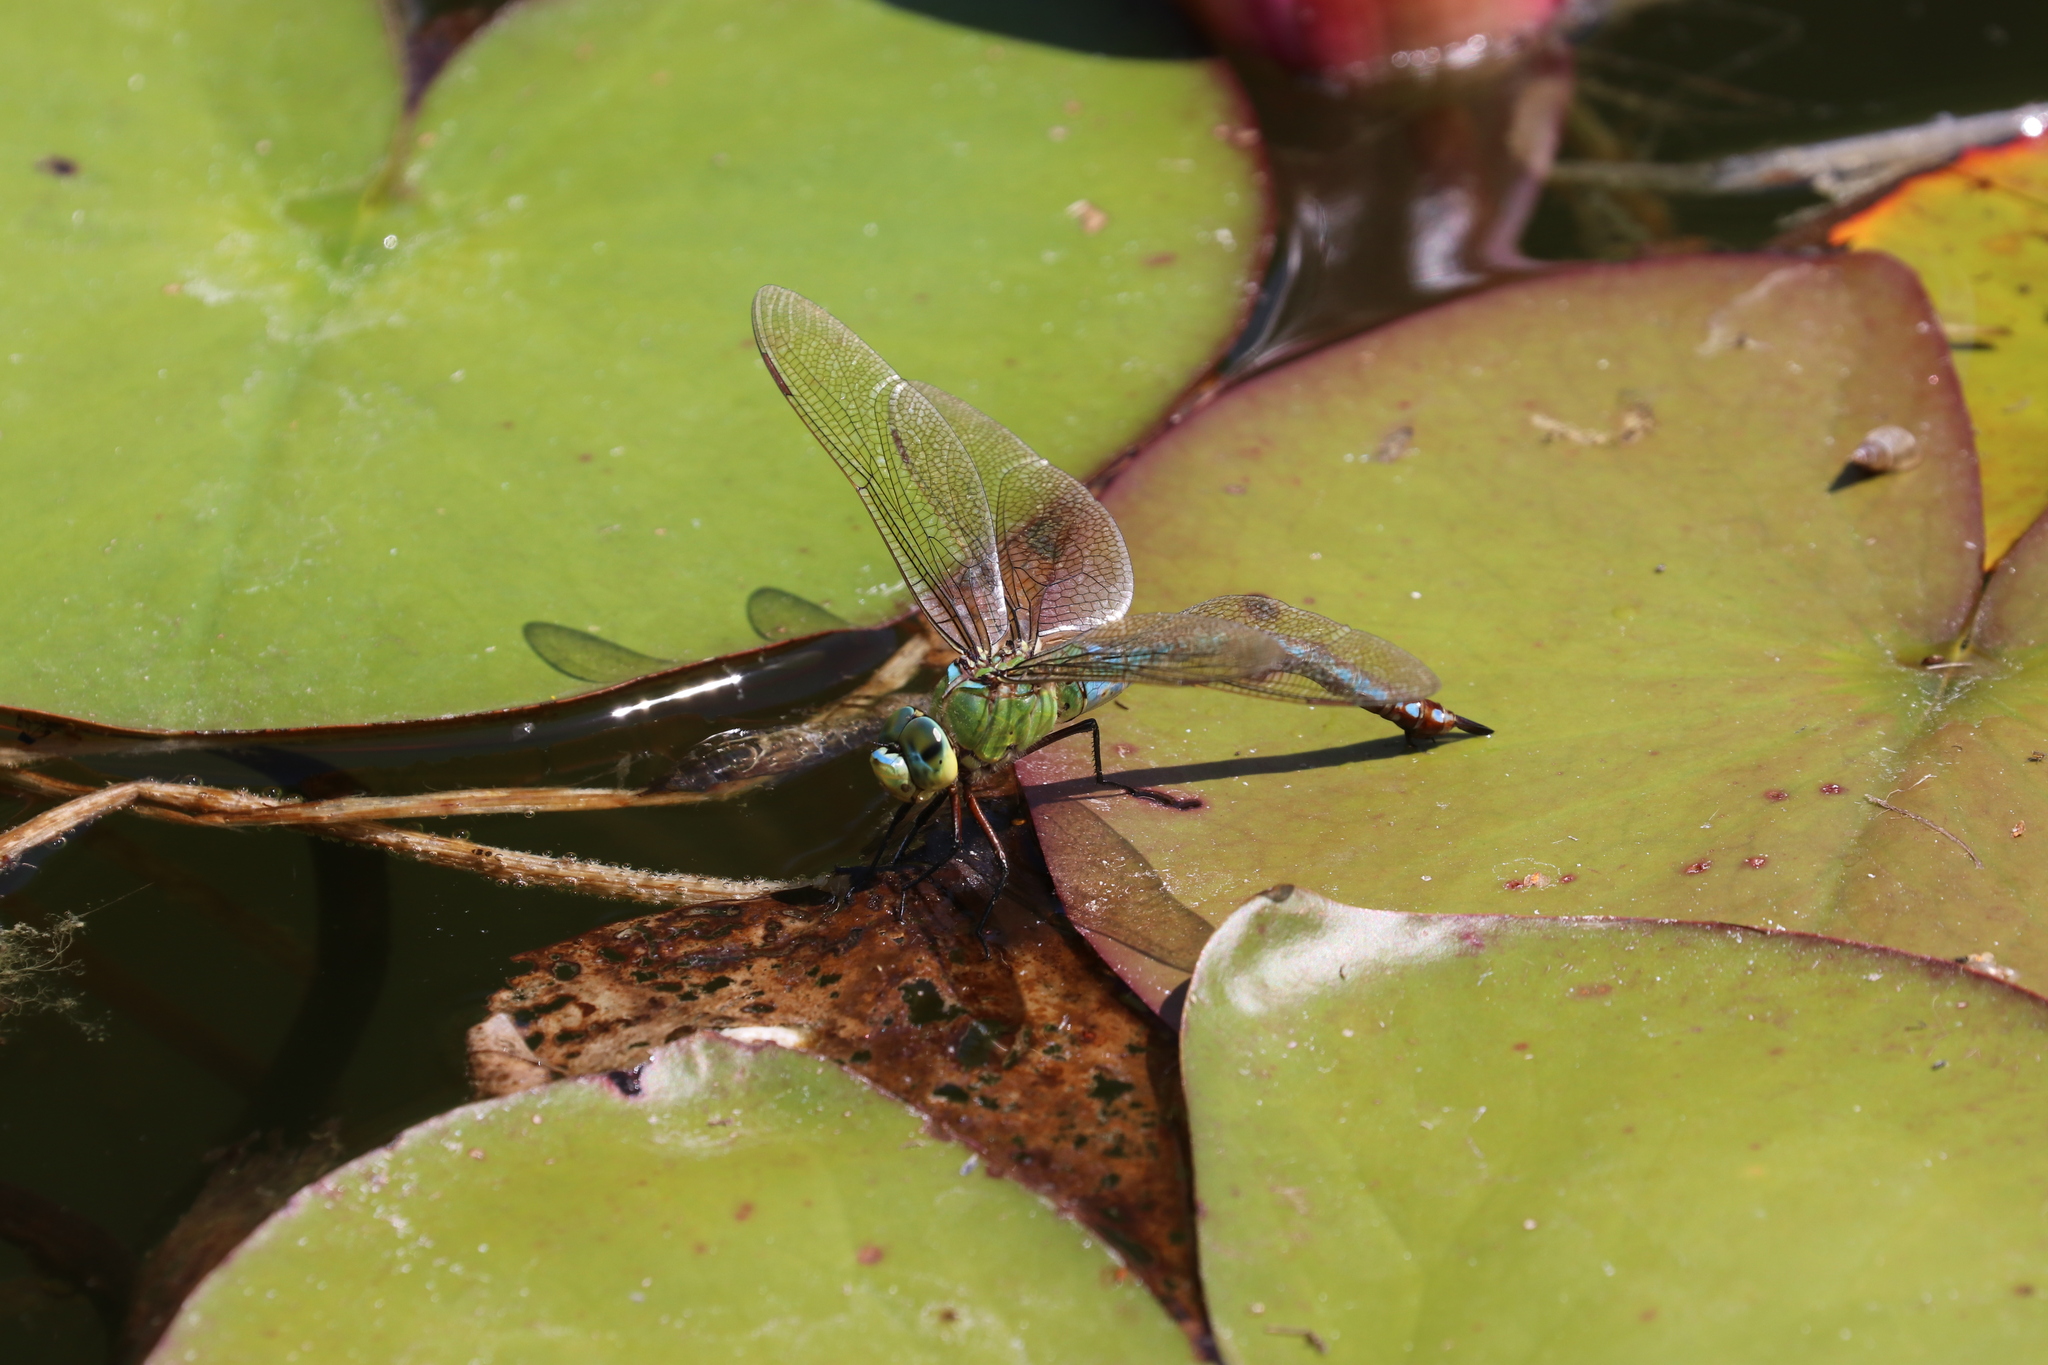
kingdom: Animalia
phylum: Arthropoda
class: Insecta
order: Odonata
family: Aeshnidae
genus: Anax
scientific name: Anax imperator
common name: Emperor dragonfly
